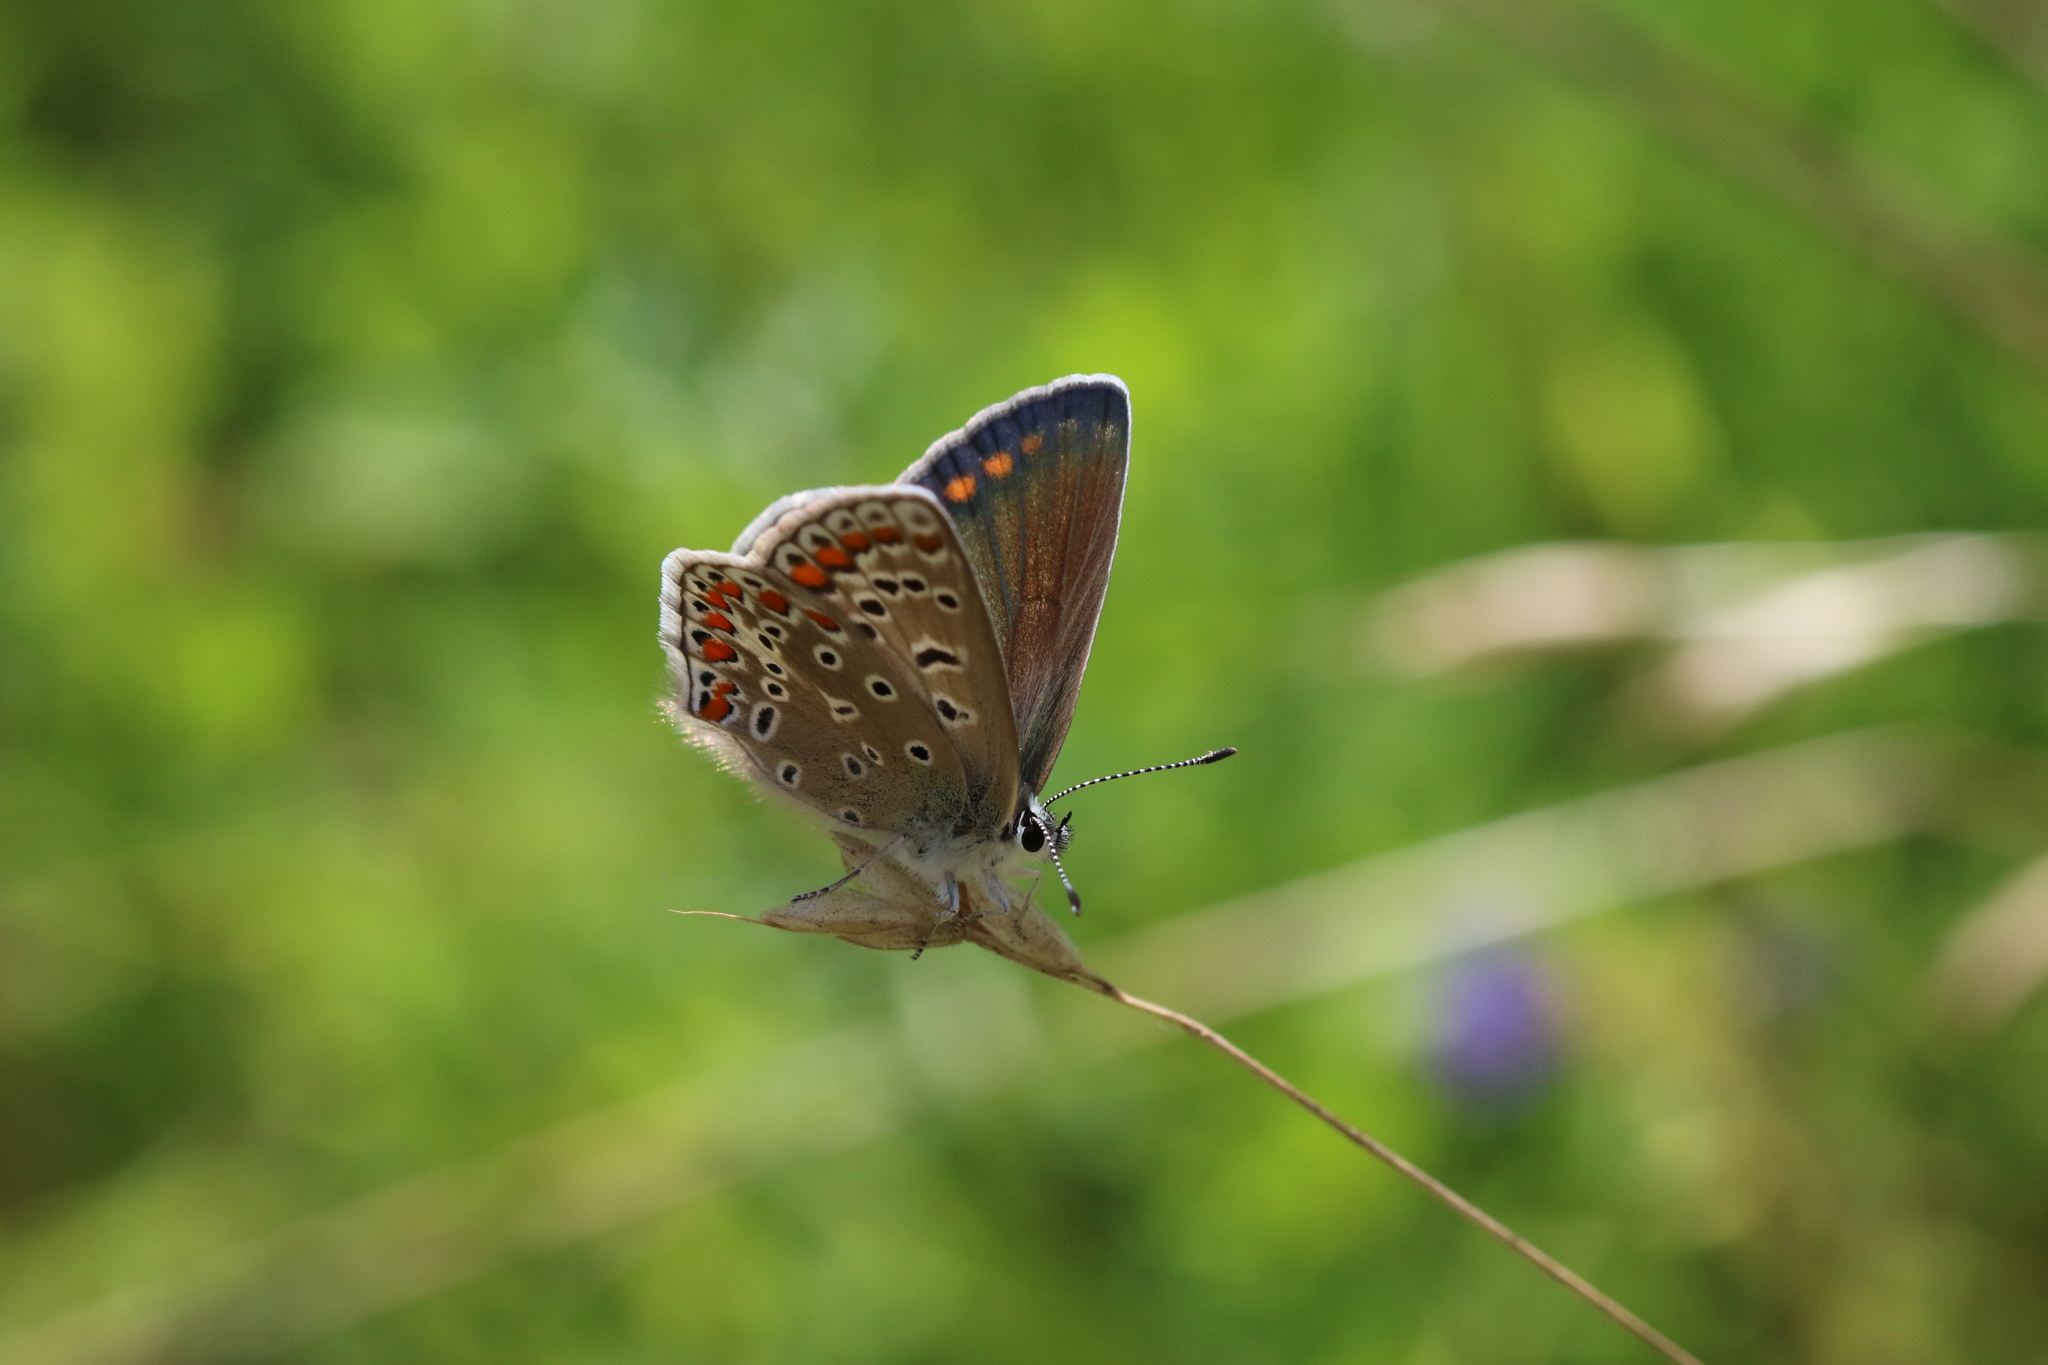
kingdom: Animalia
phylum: Arthropoda
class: Insecta
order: Lepidoptera
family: Lycaenidae
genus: Polyommatus
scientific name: Polyommatus icarus
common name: Common blue
